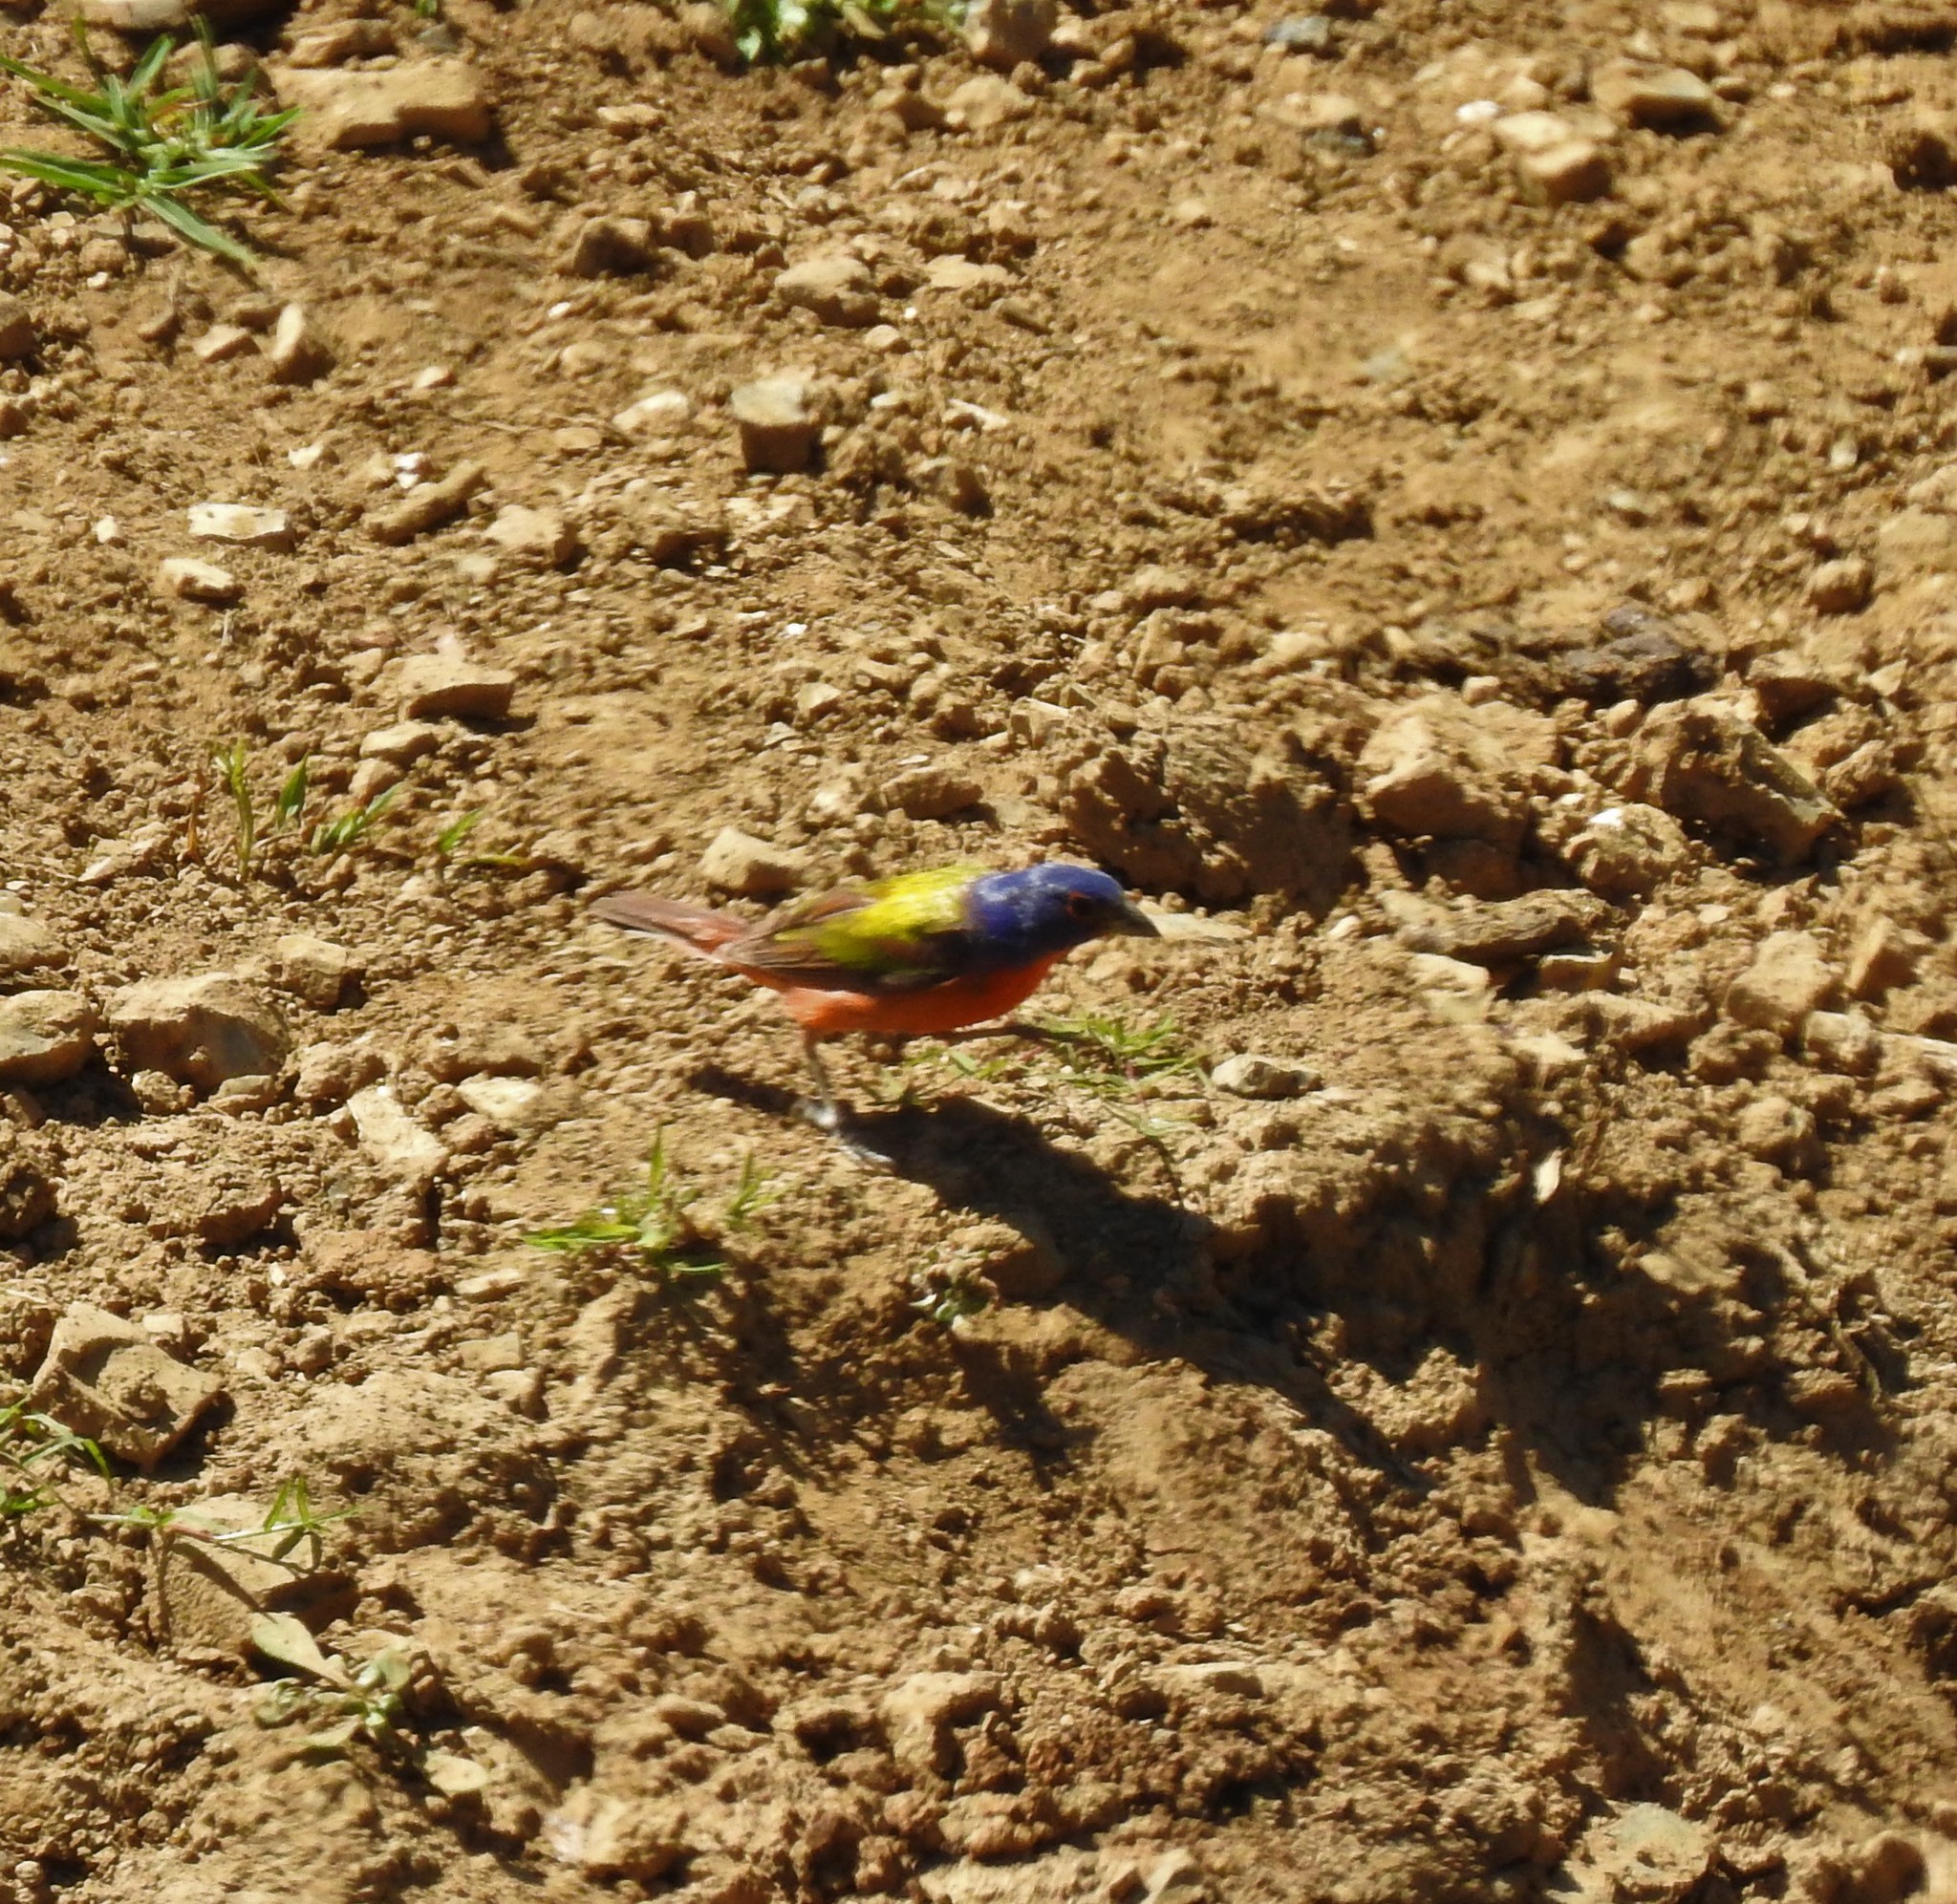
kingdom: Animalia
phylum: Chordata
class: Aves
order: Passeriformes
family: Cardinalidae
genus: Passerina
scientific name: Passerina ciris
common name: Painted bunting
